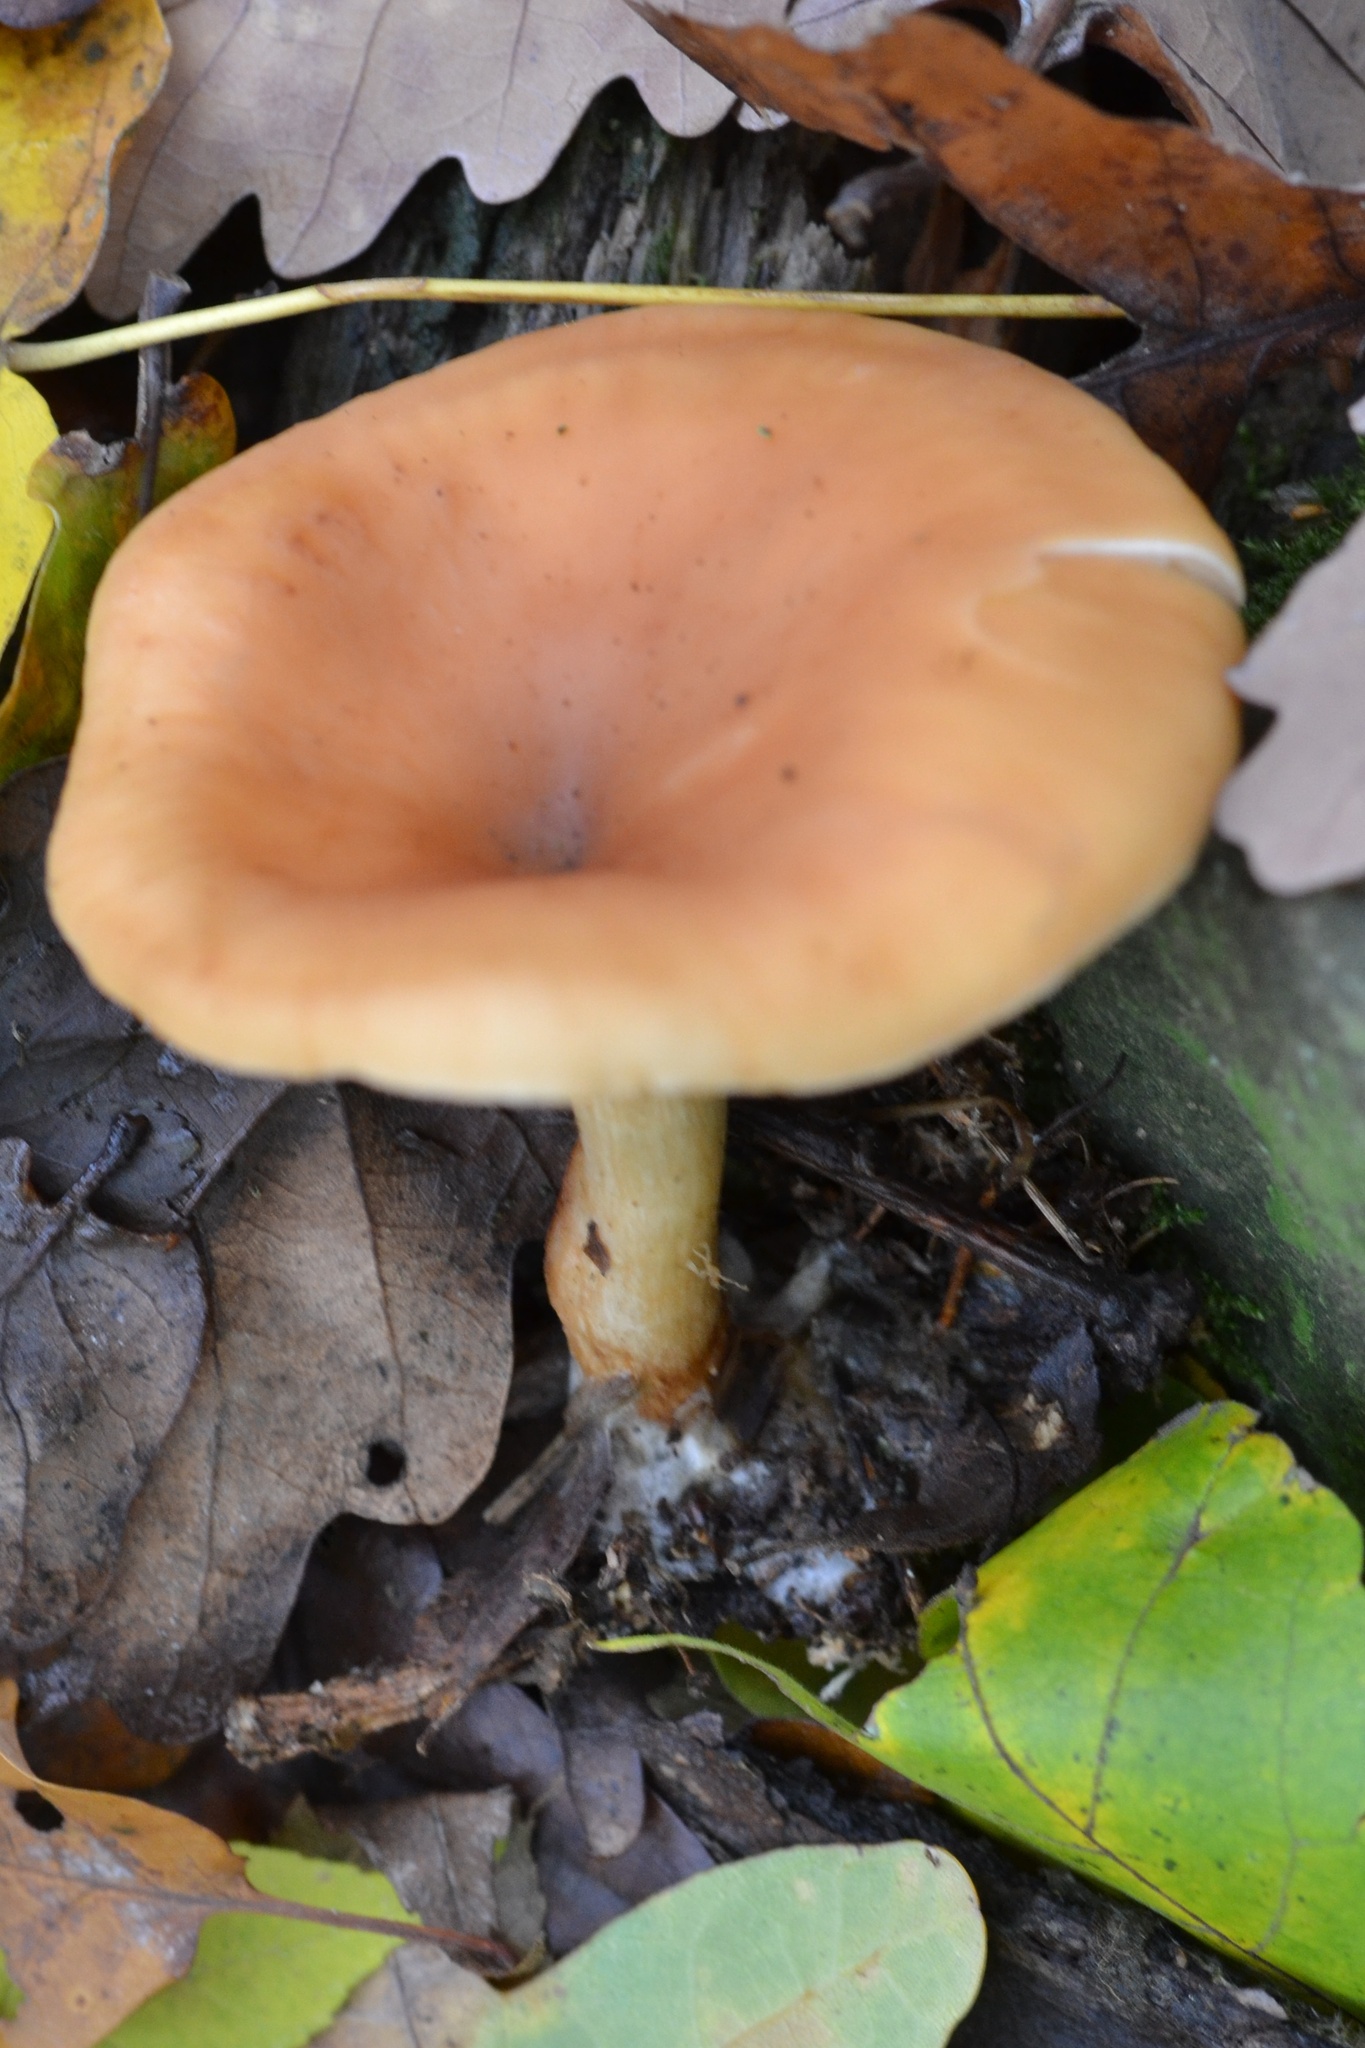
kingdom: Fungi
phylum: Basidiomycota
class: Agaricomycetes
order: Agaricales
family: Tricholomataceae
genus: Paralepista
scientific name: Paralepista flaccida
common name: Tawny funnel cap
